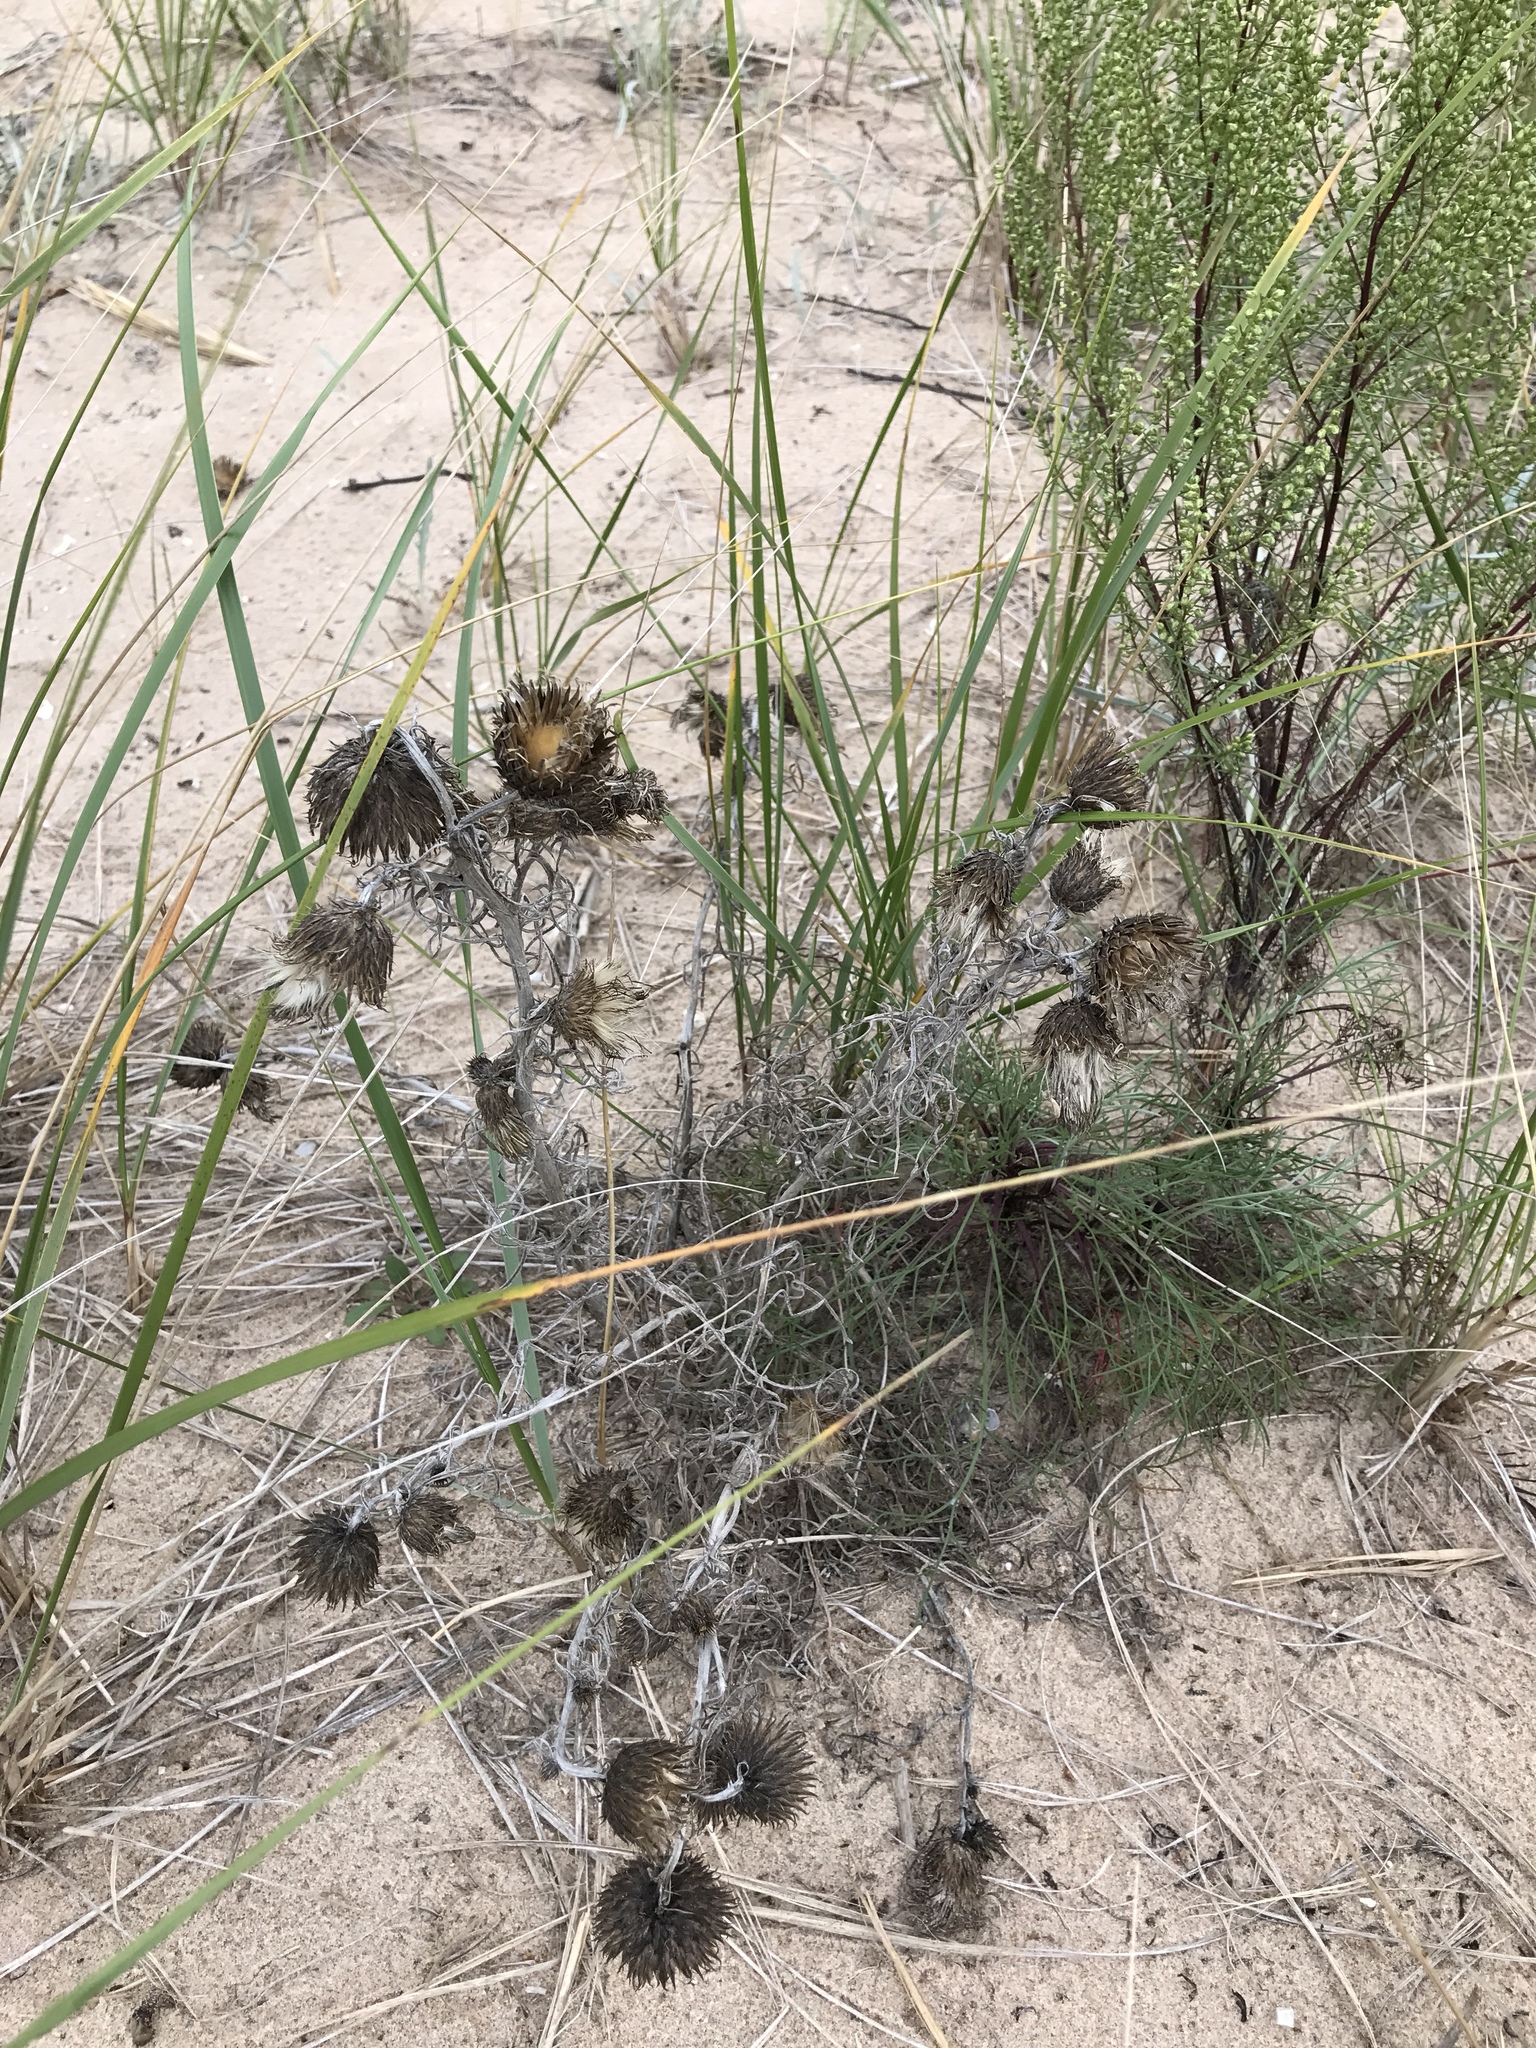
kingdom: Plantae
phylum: Tracheophyta
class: Magnoliopsida
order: Asterales
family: Asteraceae
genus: Cirsium
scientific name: Cirsium pitcheri
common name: Dune thistle
